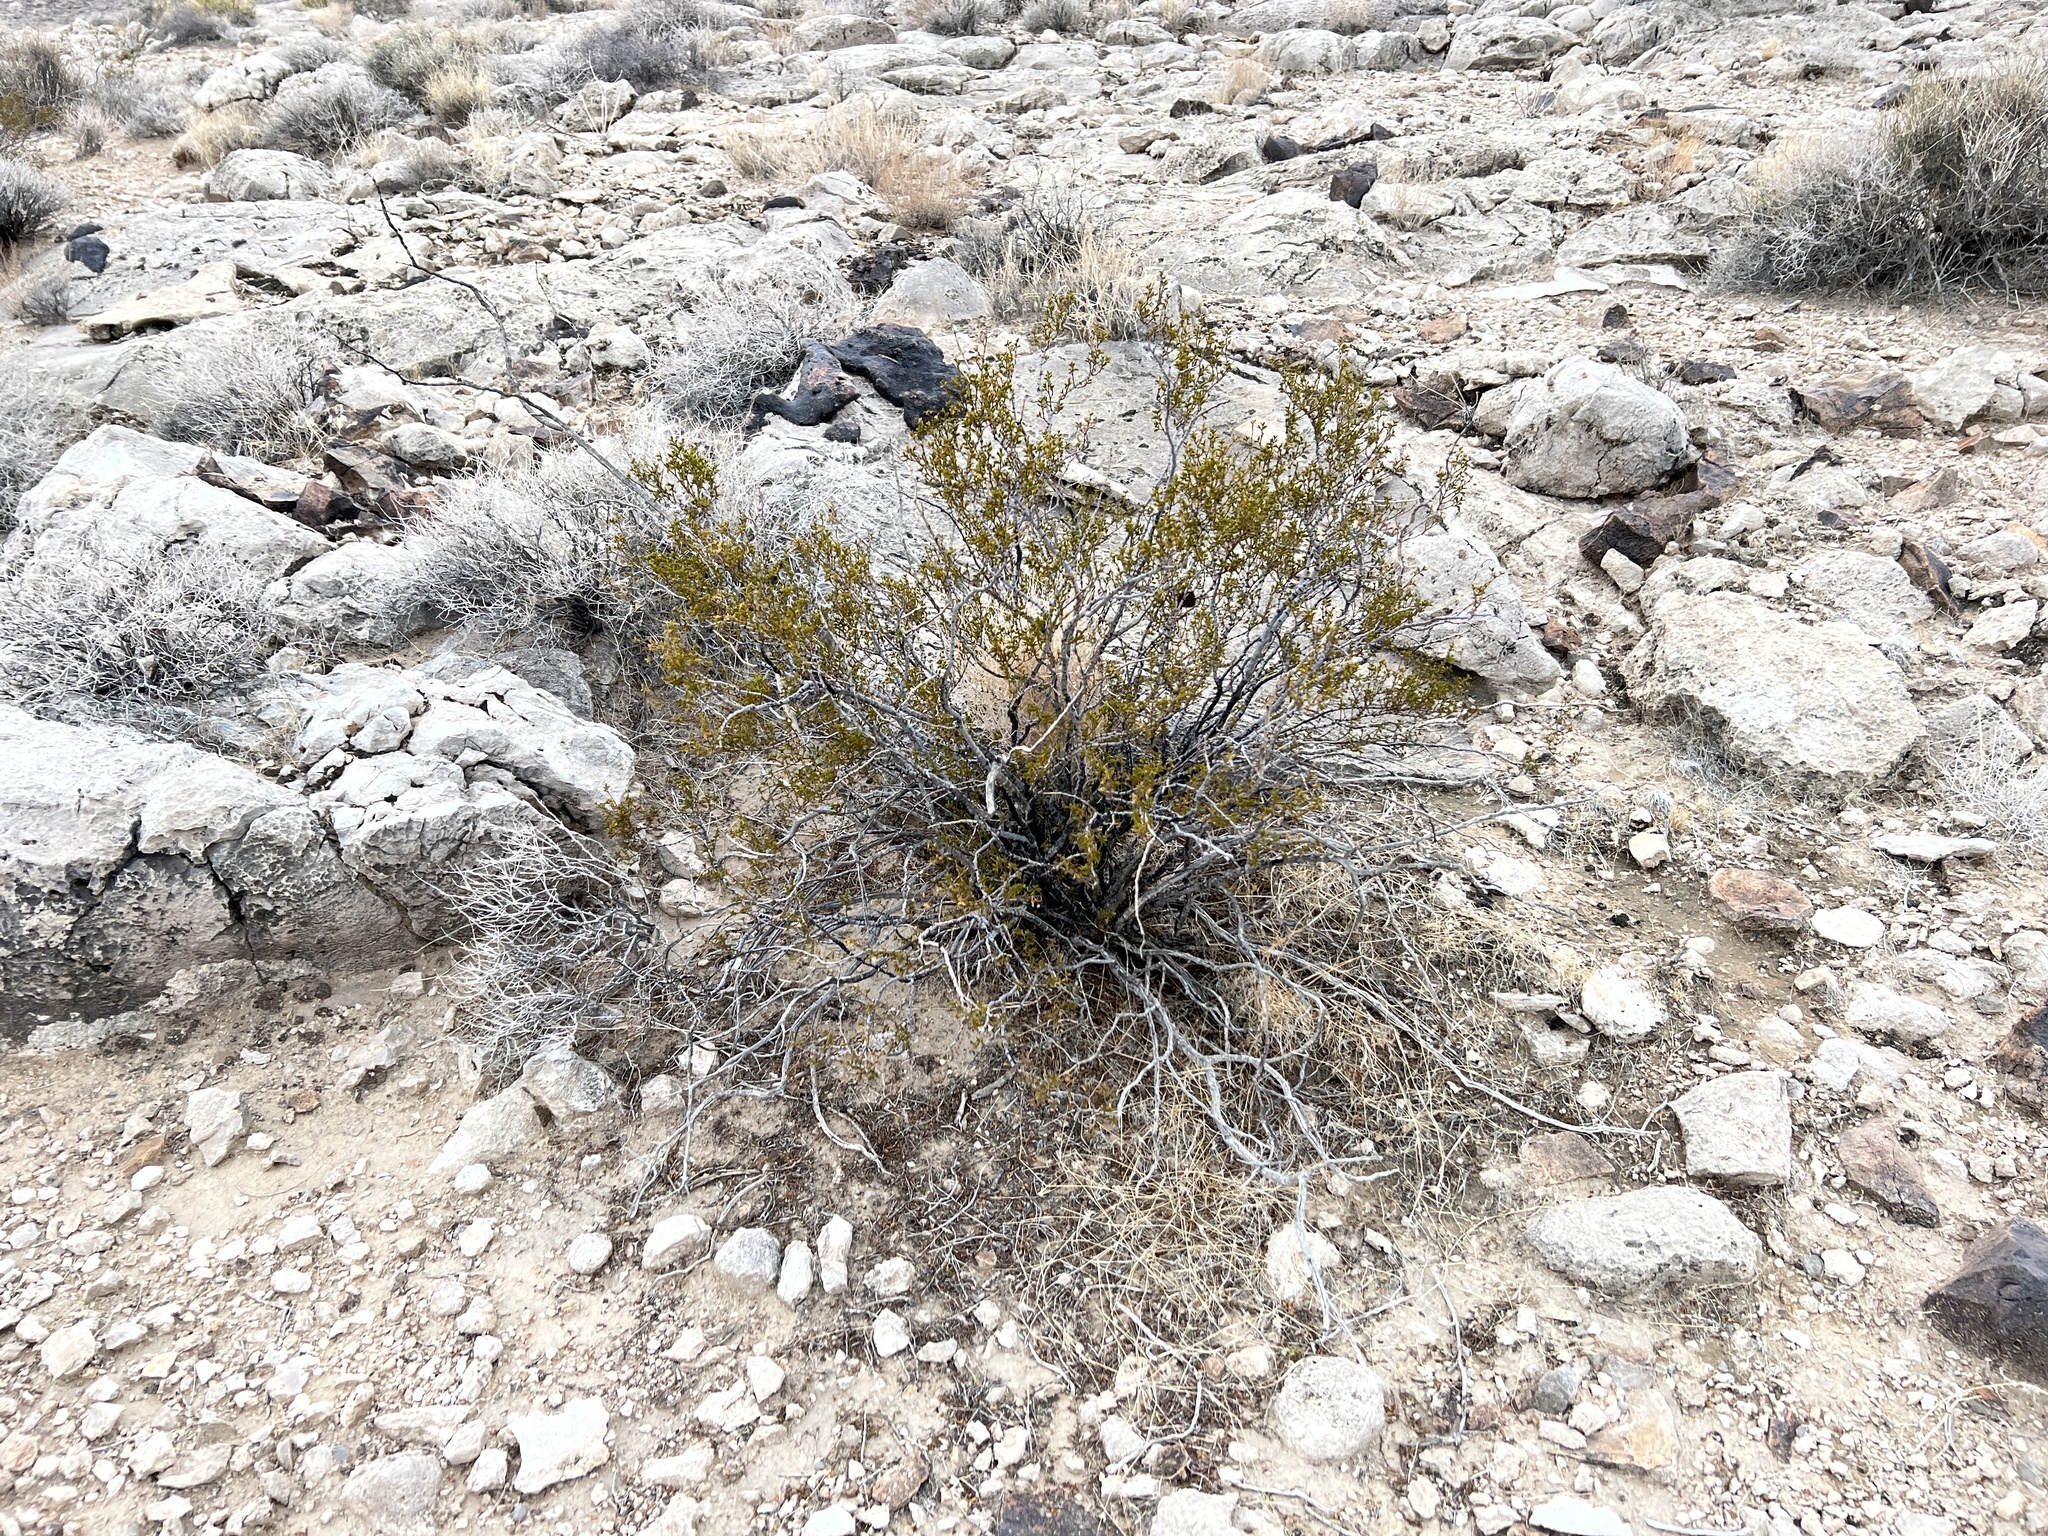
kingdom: Plantae
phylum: Tracheophyta
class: Magnoliopsida
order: Zygophyllales
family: Zygophyllaceae
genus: Larrea
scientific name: Larrea tridentata
